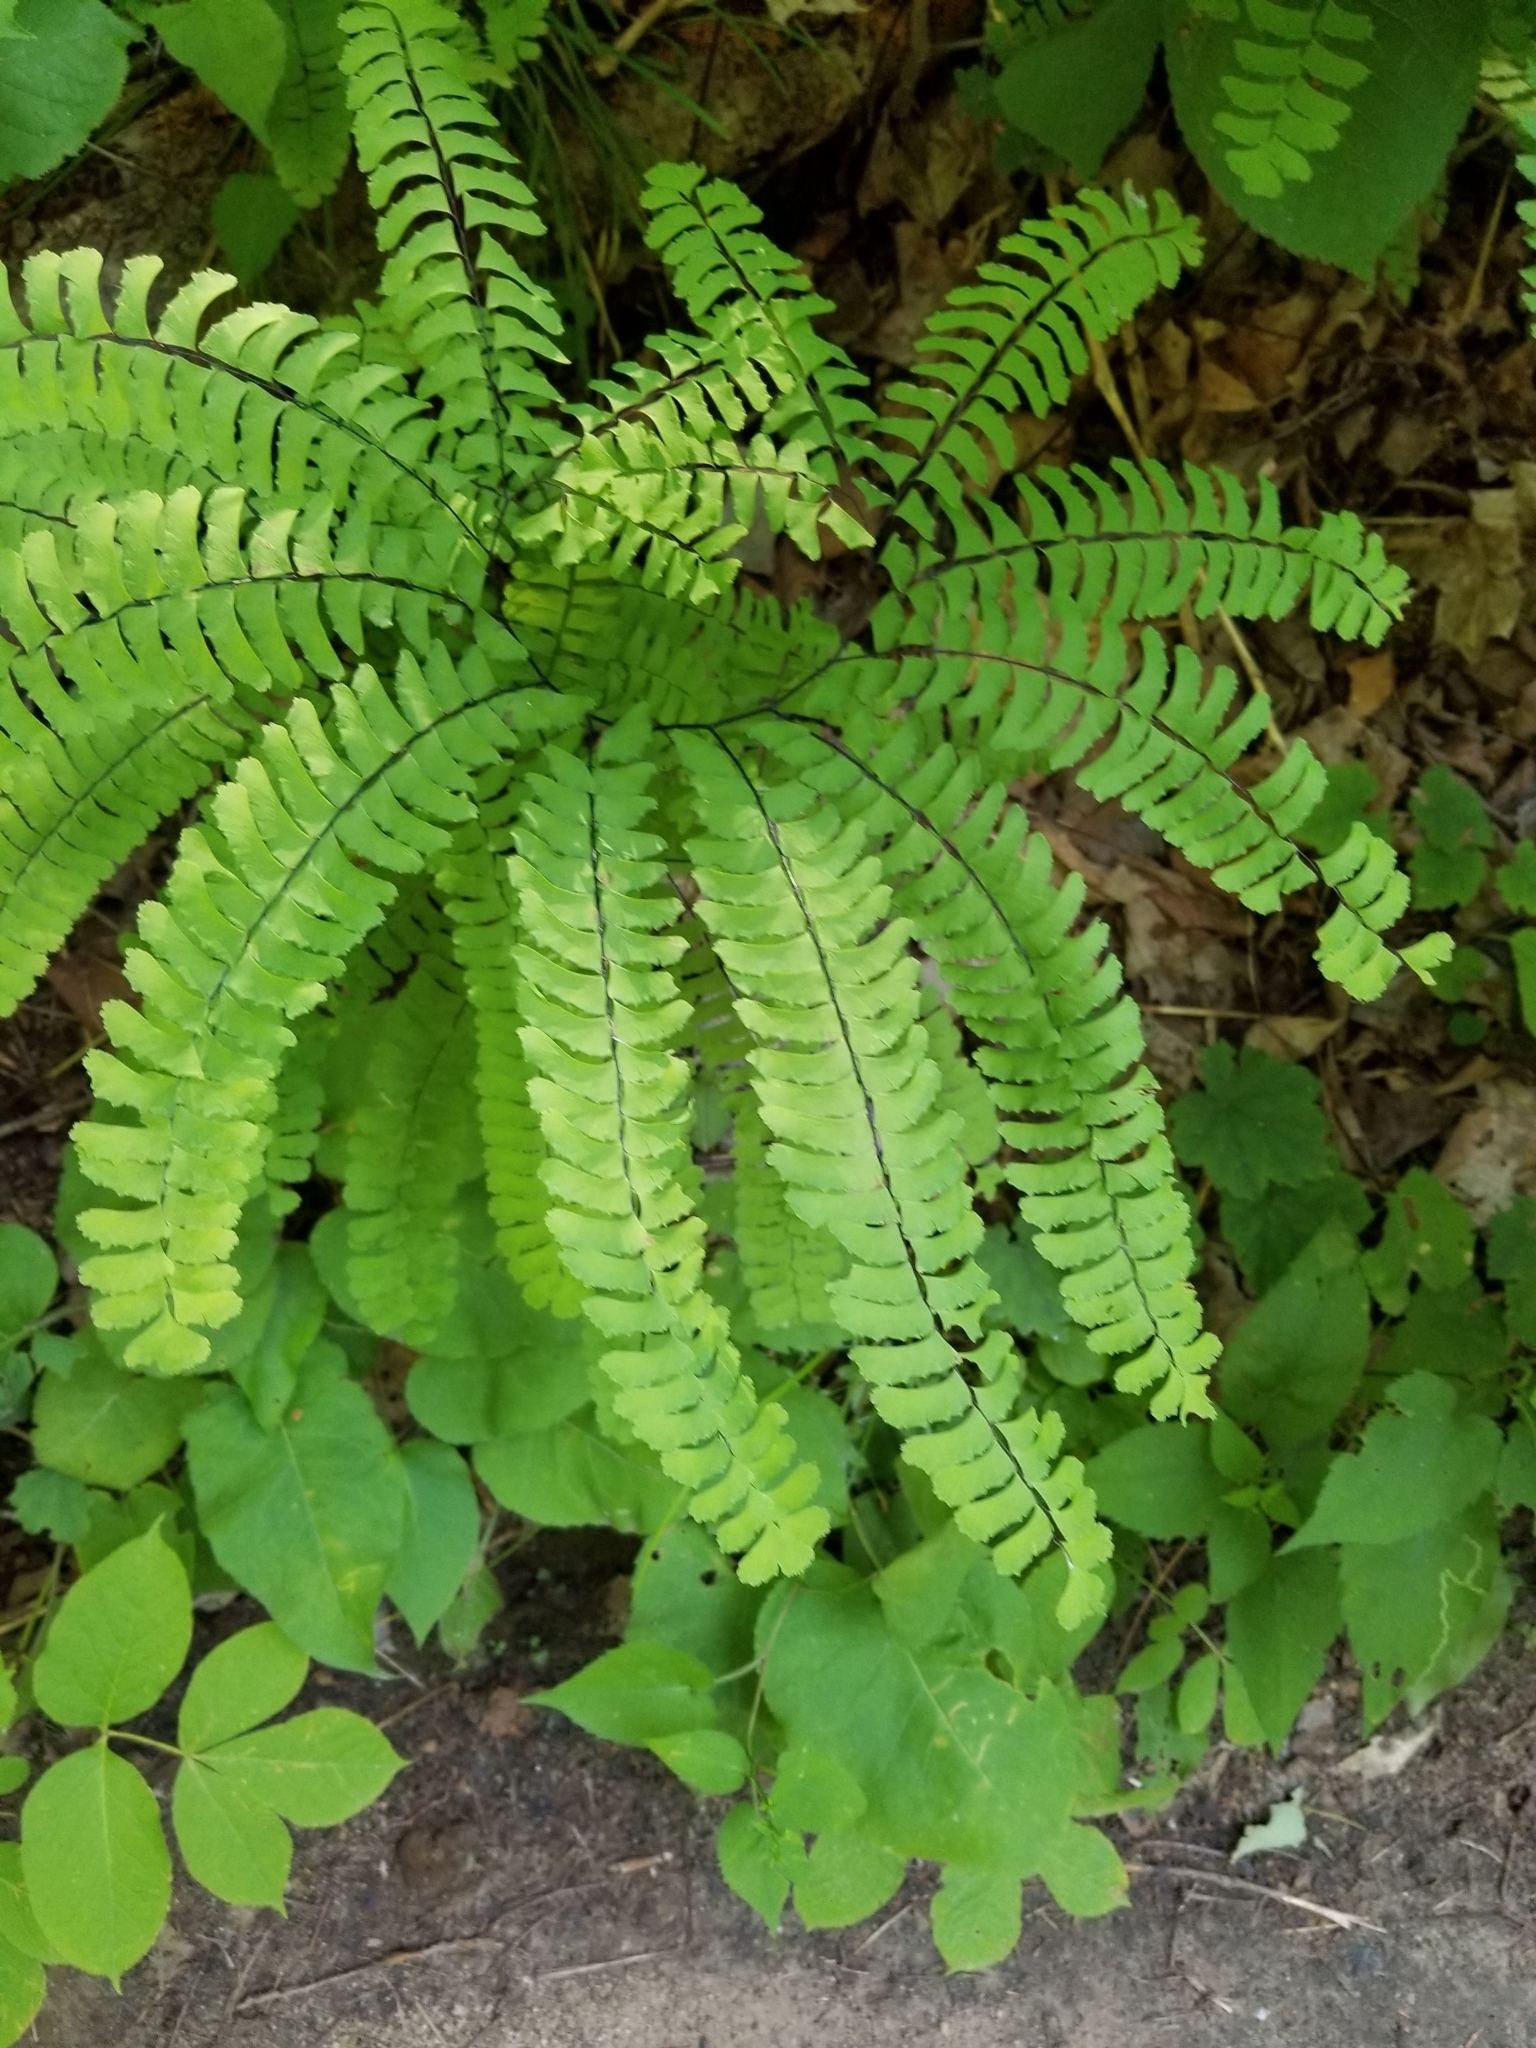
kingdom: Plantae
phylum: Tracheophyta
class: Polypodiopsida
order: Polypodiales
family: Pteridaceae
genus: Adiantum
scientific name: Adiantum pedatum
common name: Five-finger fern
